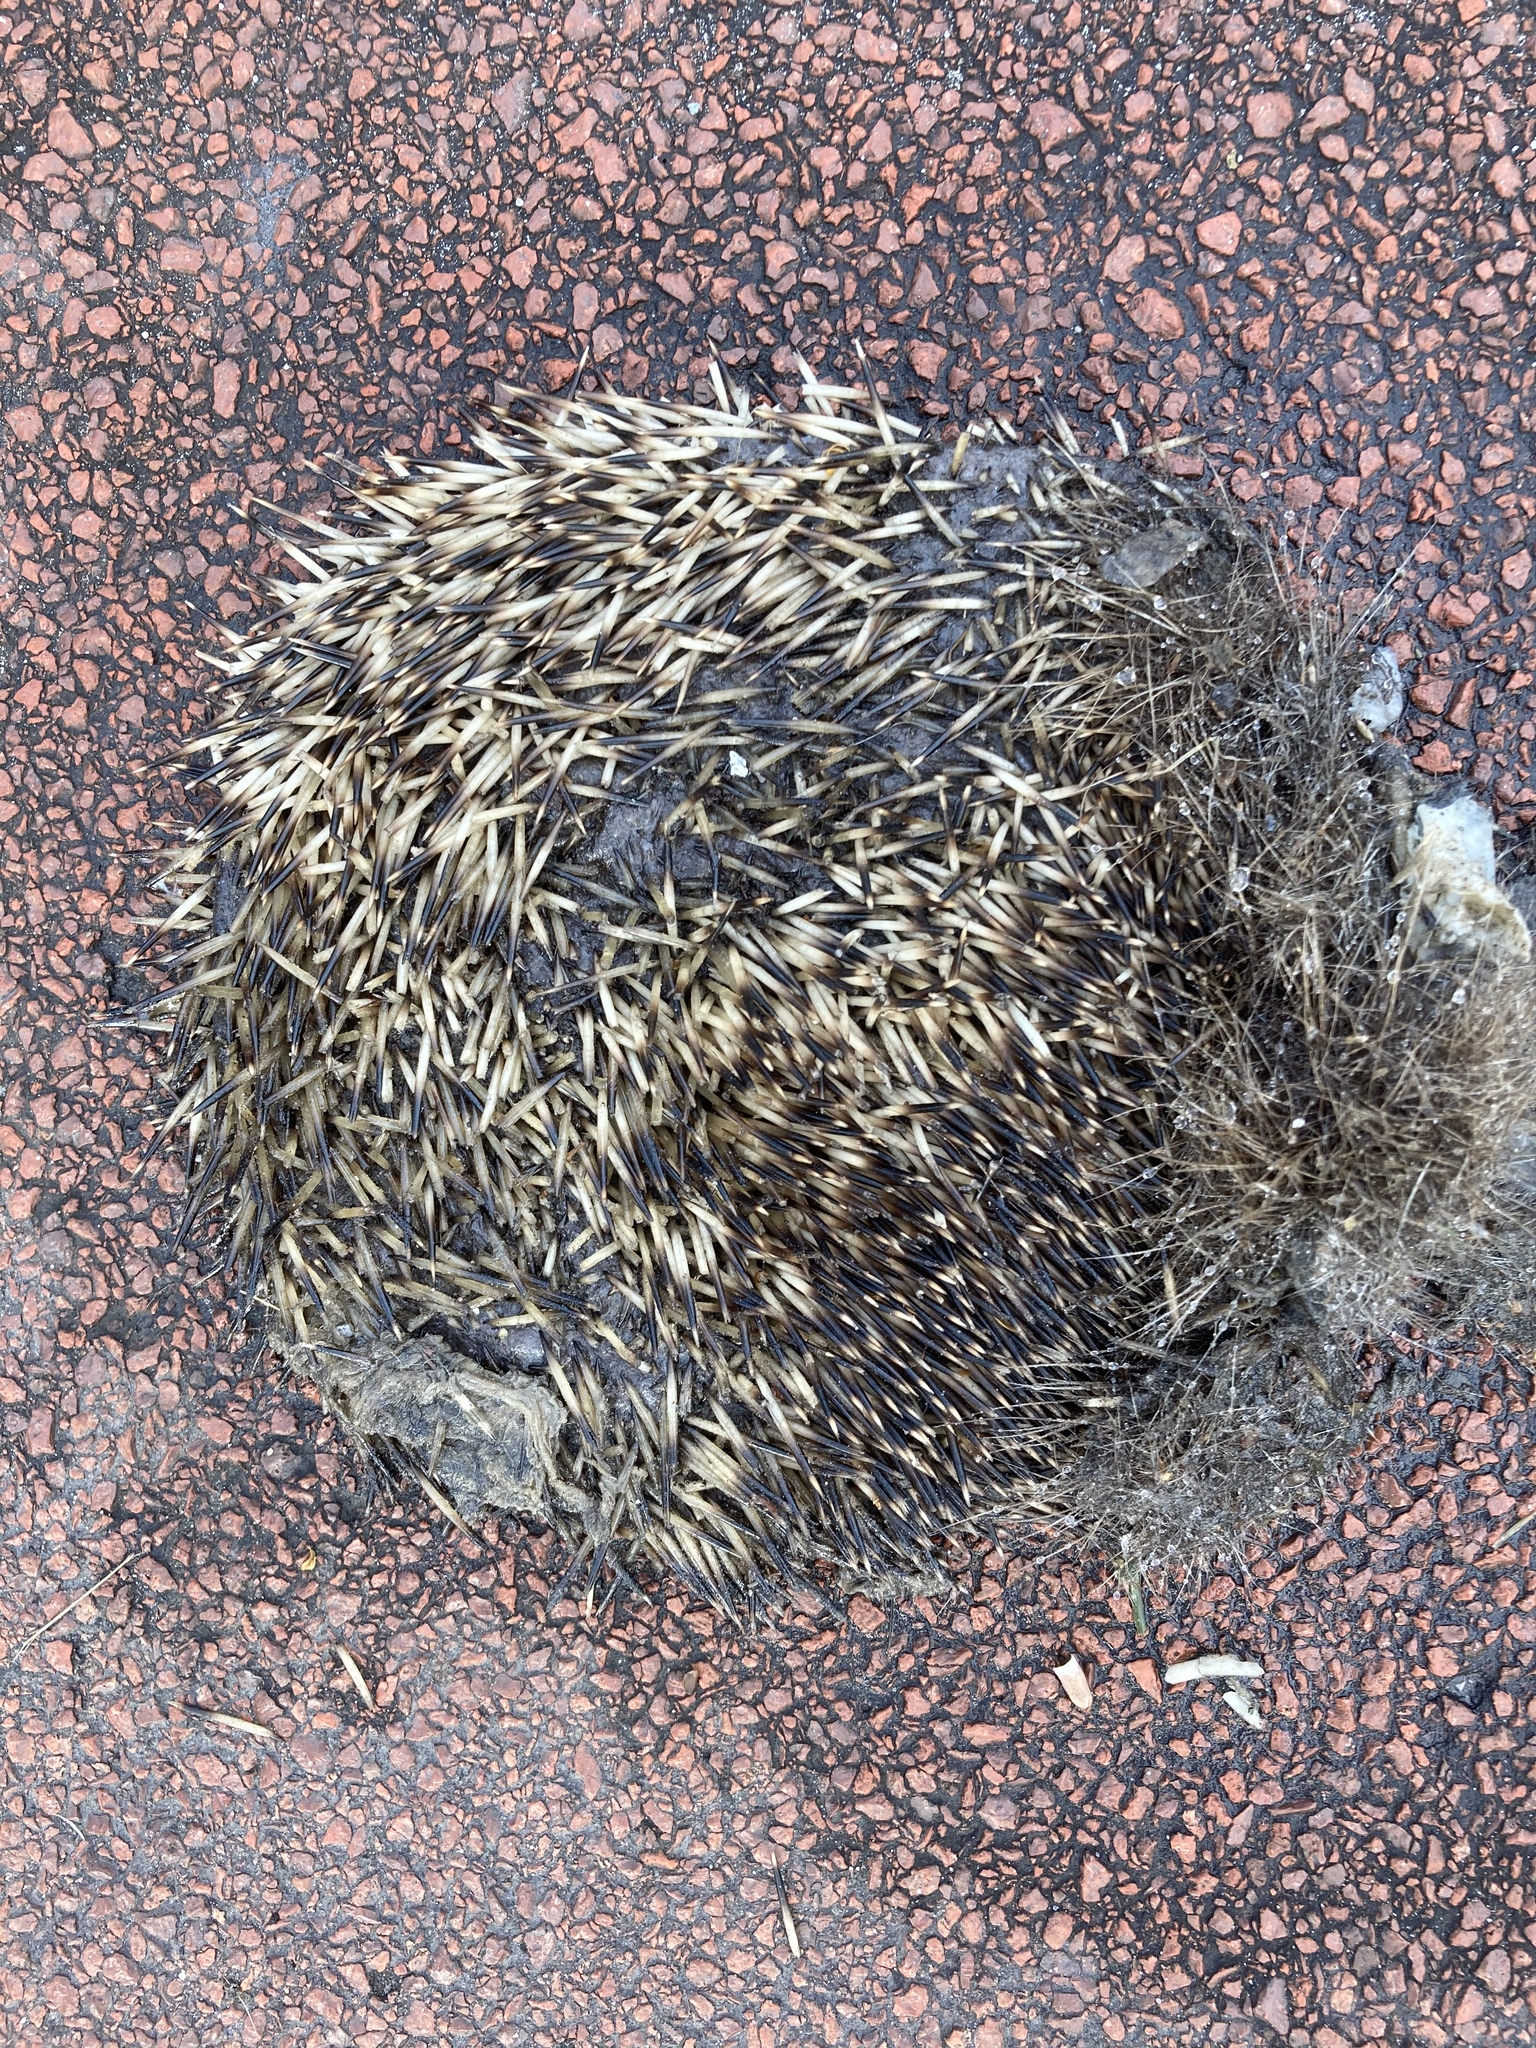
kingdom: Animalia
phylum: Chordata
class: Mammalia
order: Erinaceomorpha
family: Erinaceidae
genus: Erinaceus
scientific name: Erinaceus europaeus
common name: West european hedgehog
